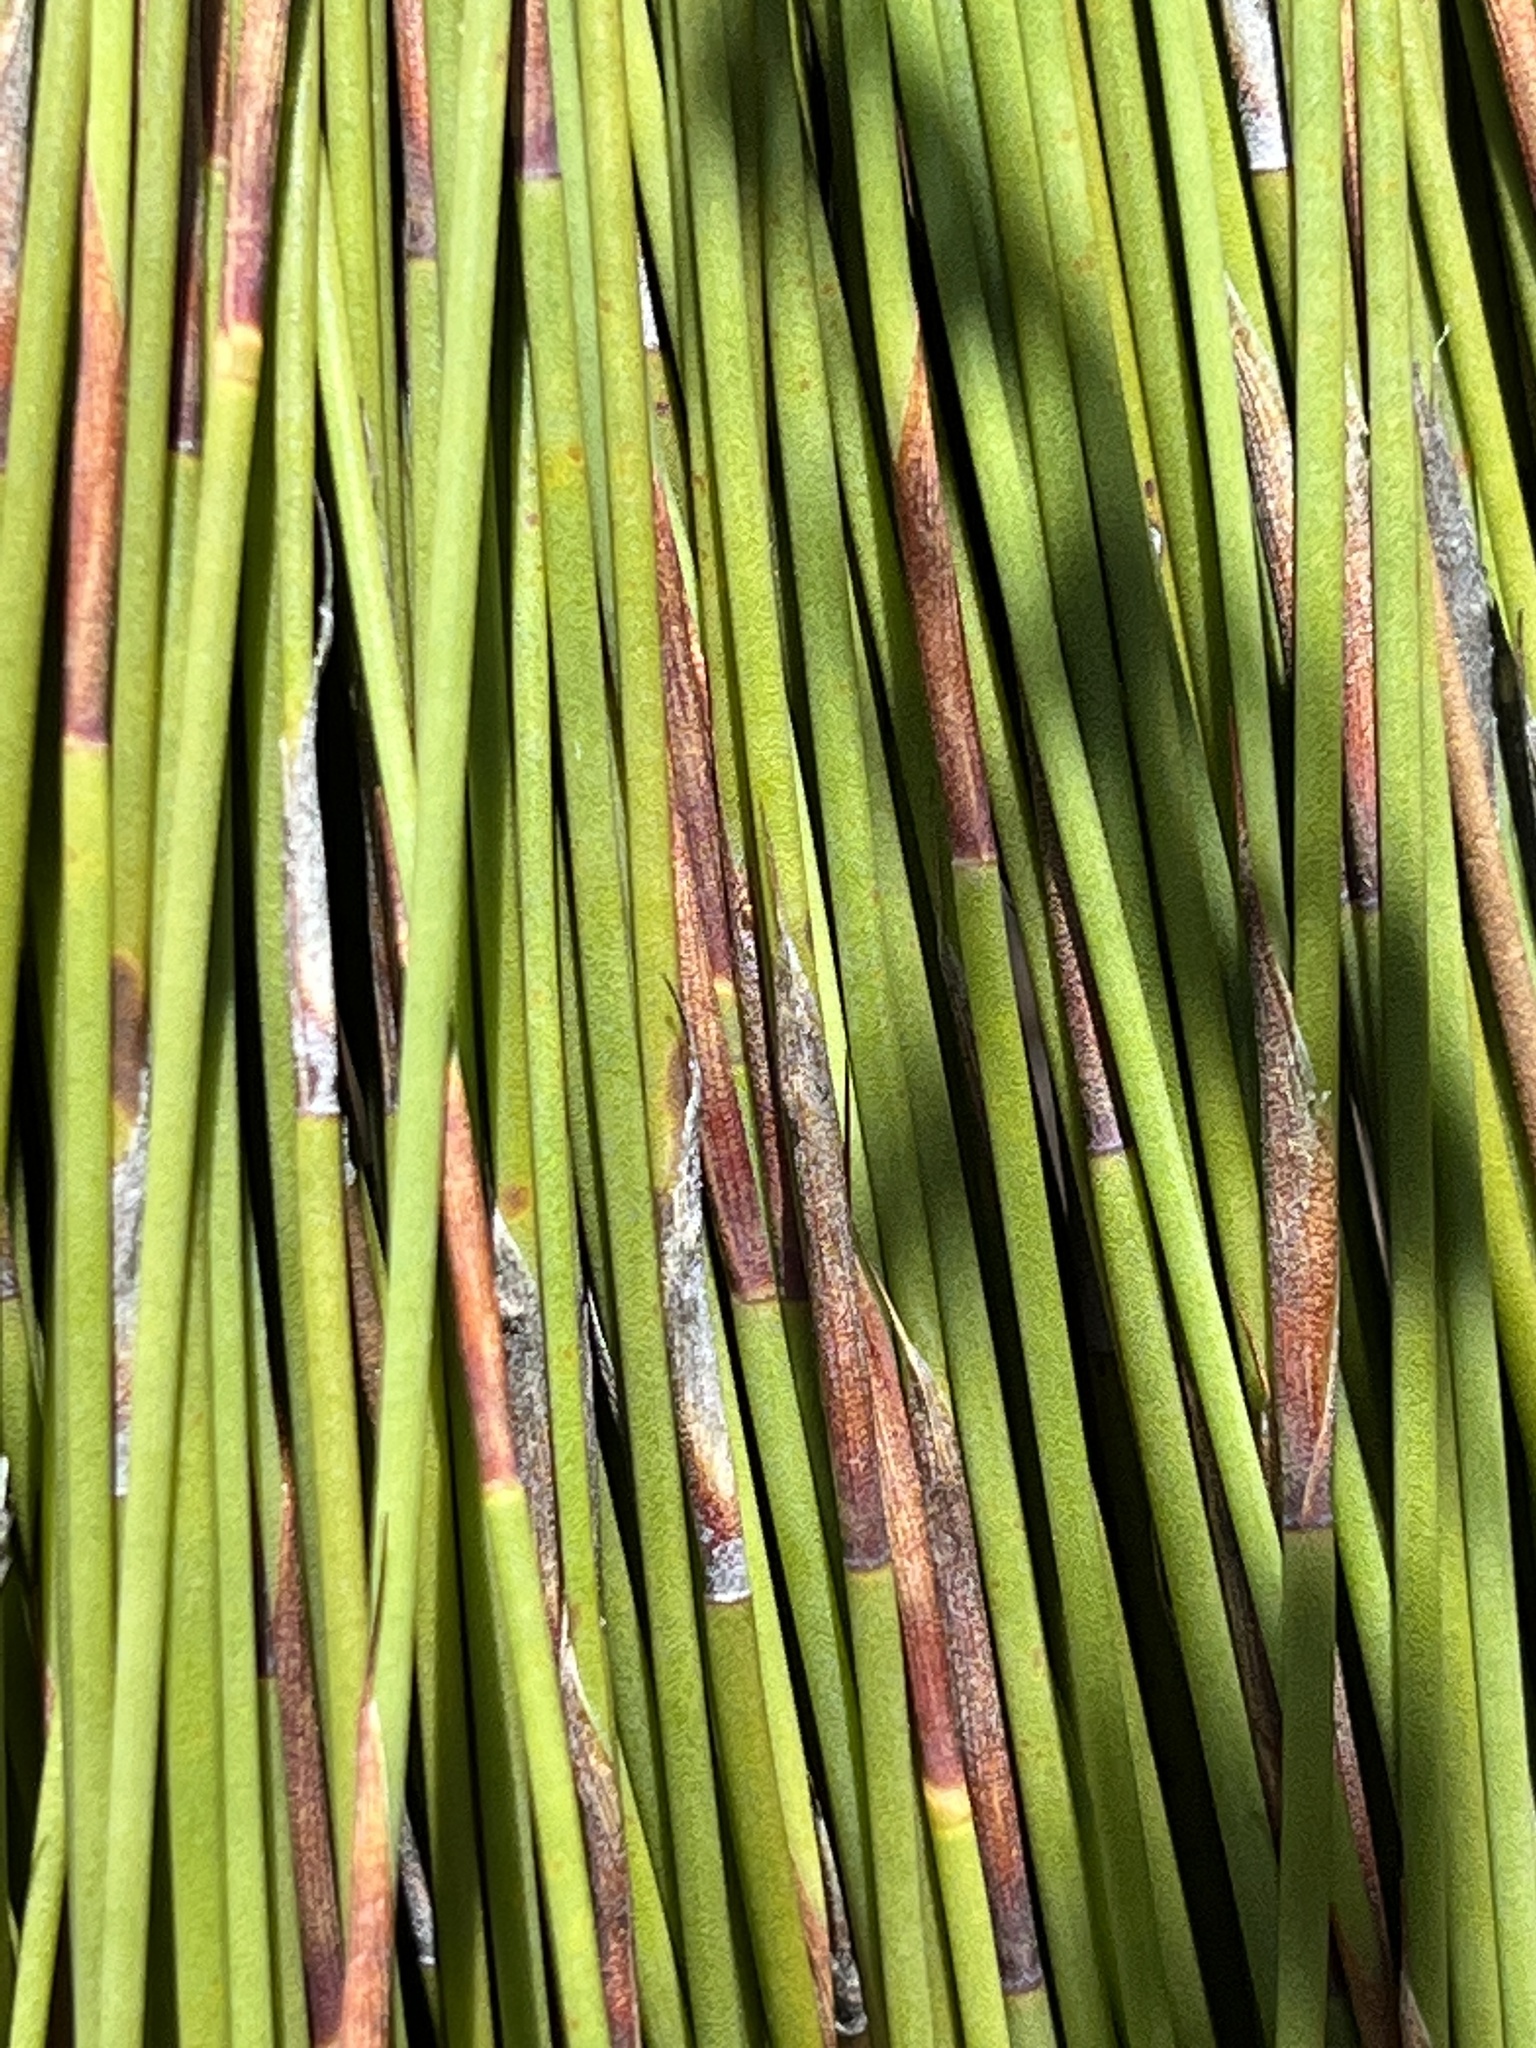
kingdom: Plantae
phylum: Tracheophyta
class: Liliopsida
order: Poales
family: Restionaceae
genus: Mastersiella
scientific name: Mastersiella purpurea
